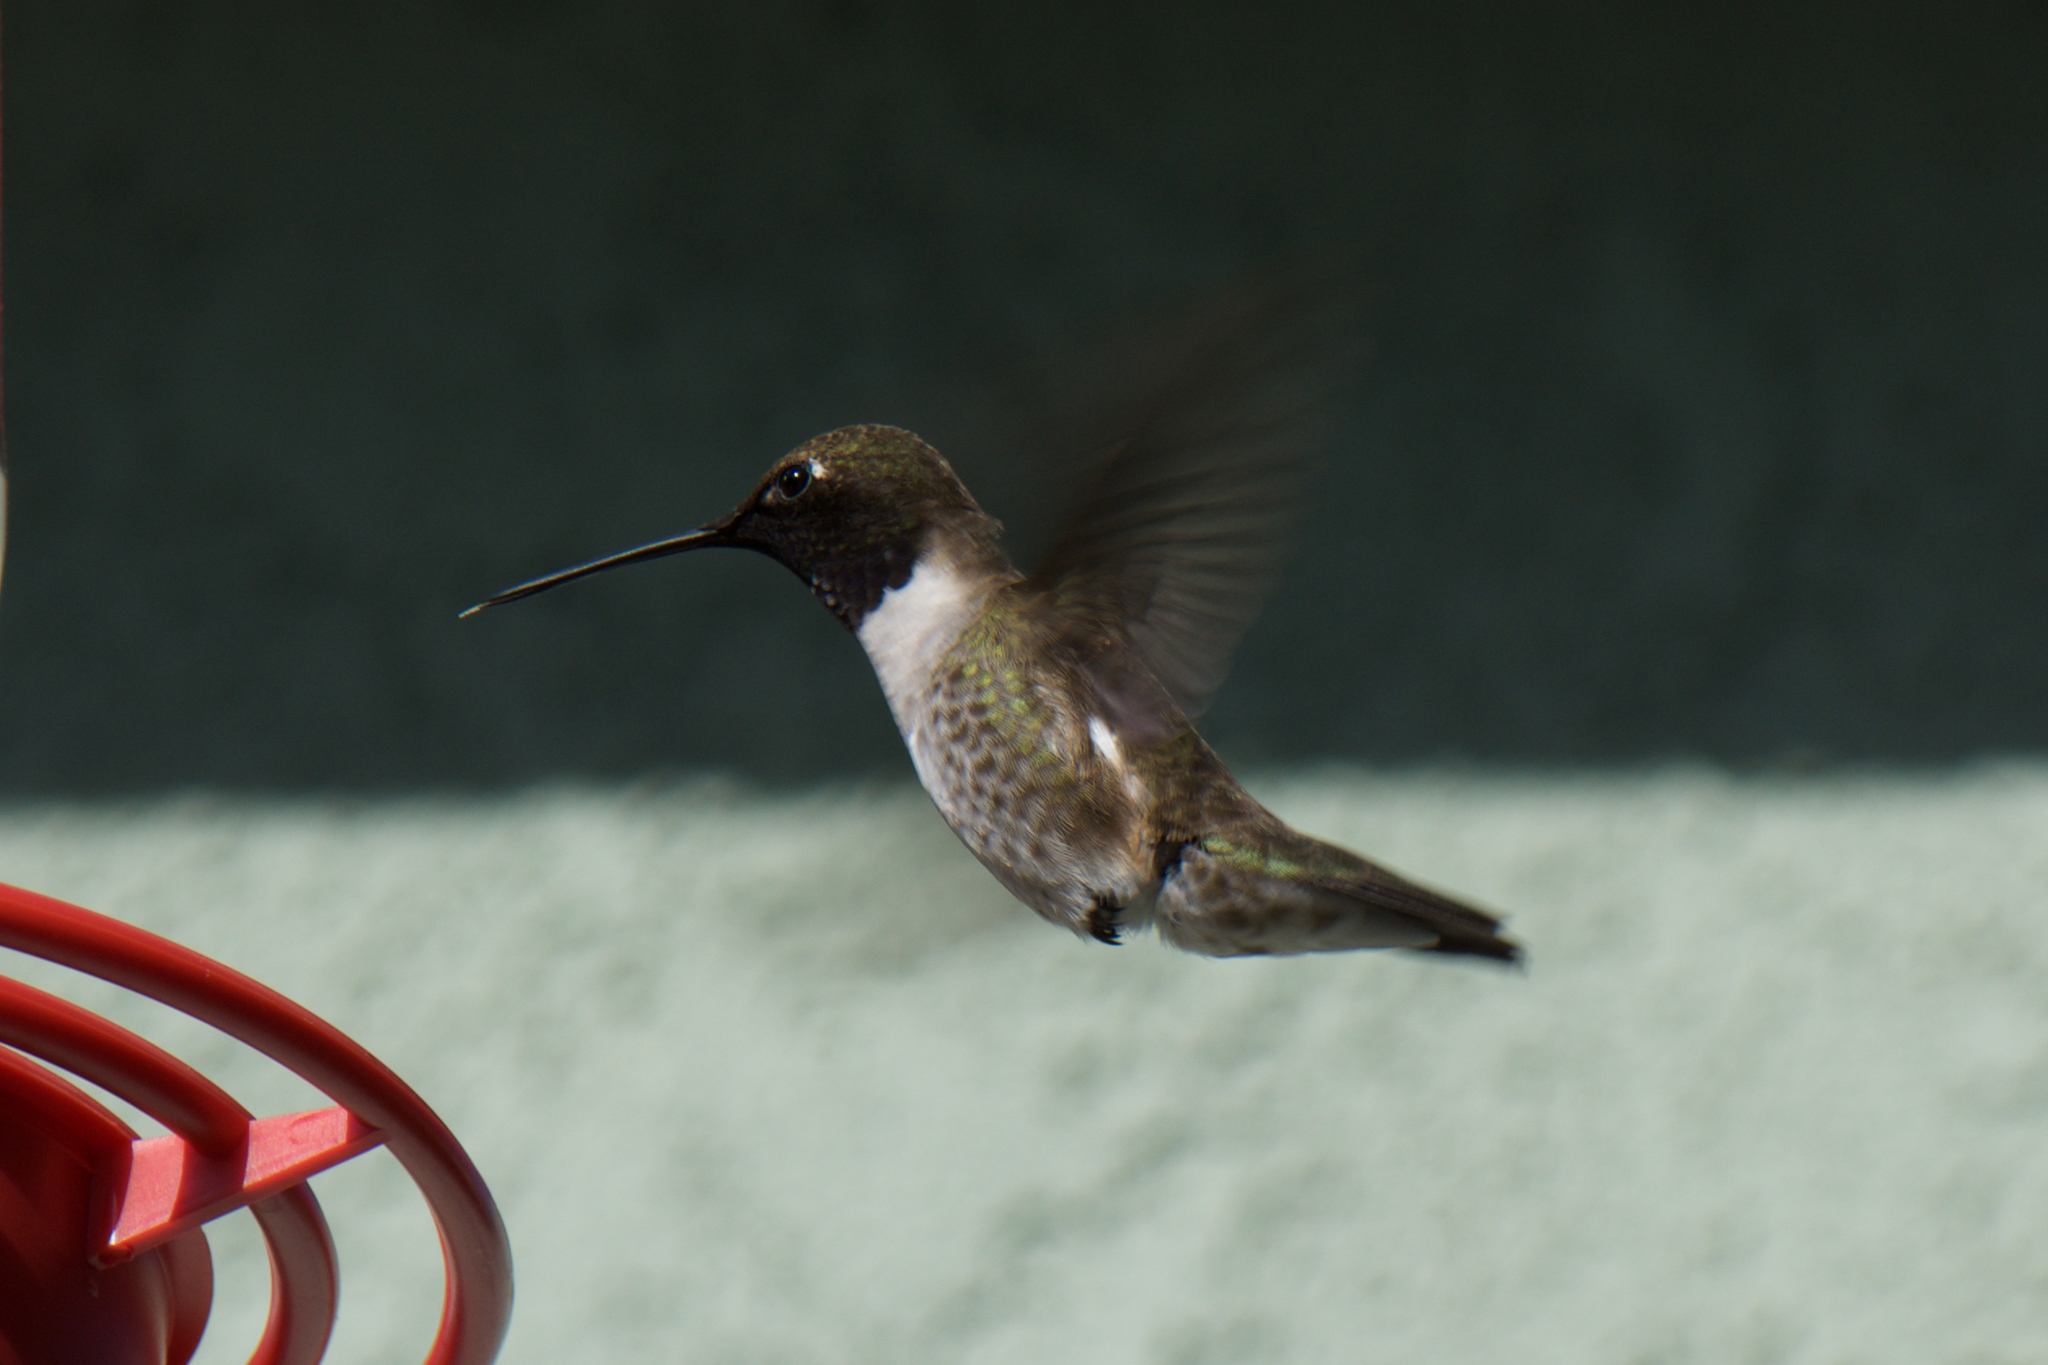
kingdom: Animalia
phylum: Chordata
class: Aves
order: Apodiformes
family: Trochilidae
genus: Archilochus
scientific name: Archilochus alexandri
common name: Black-chinned hummingbird
